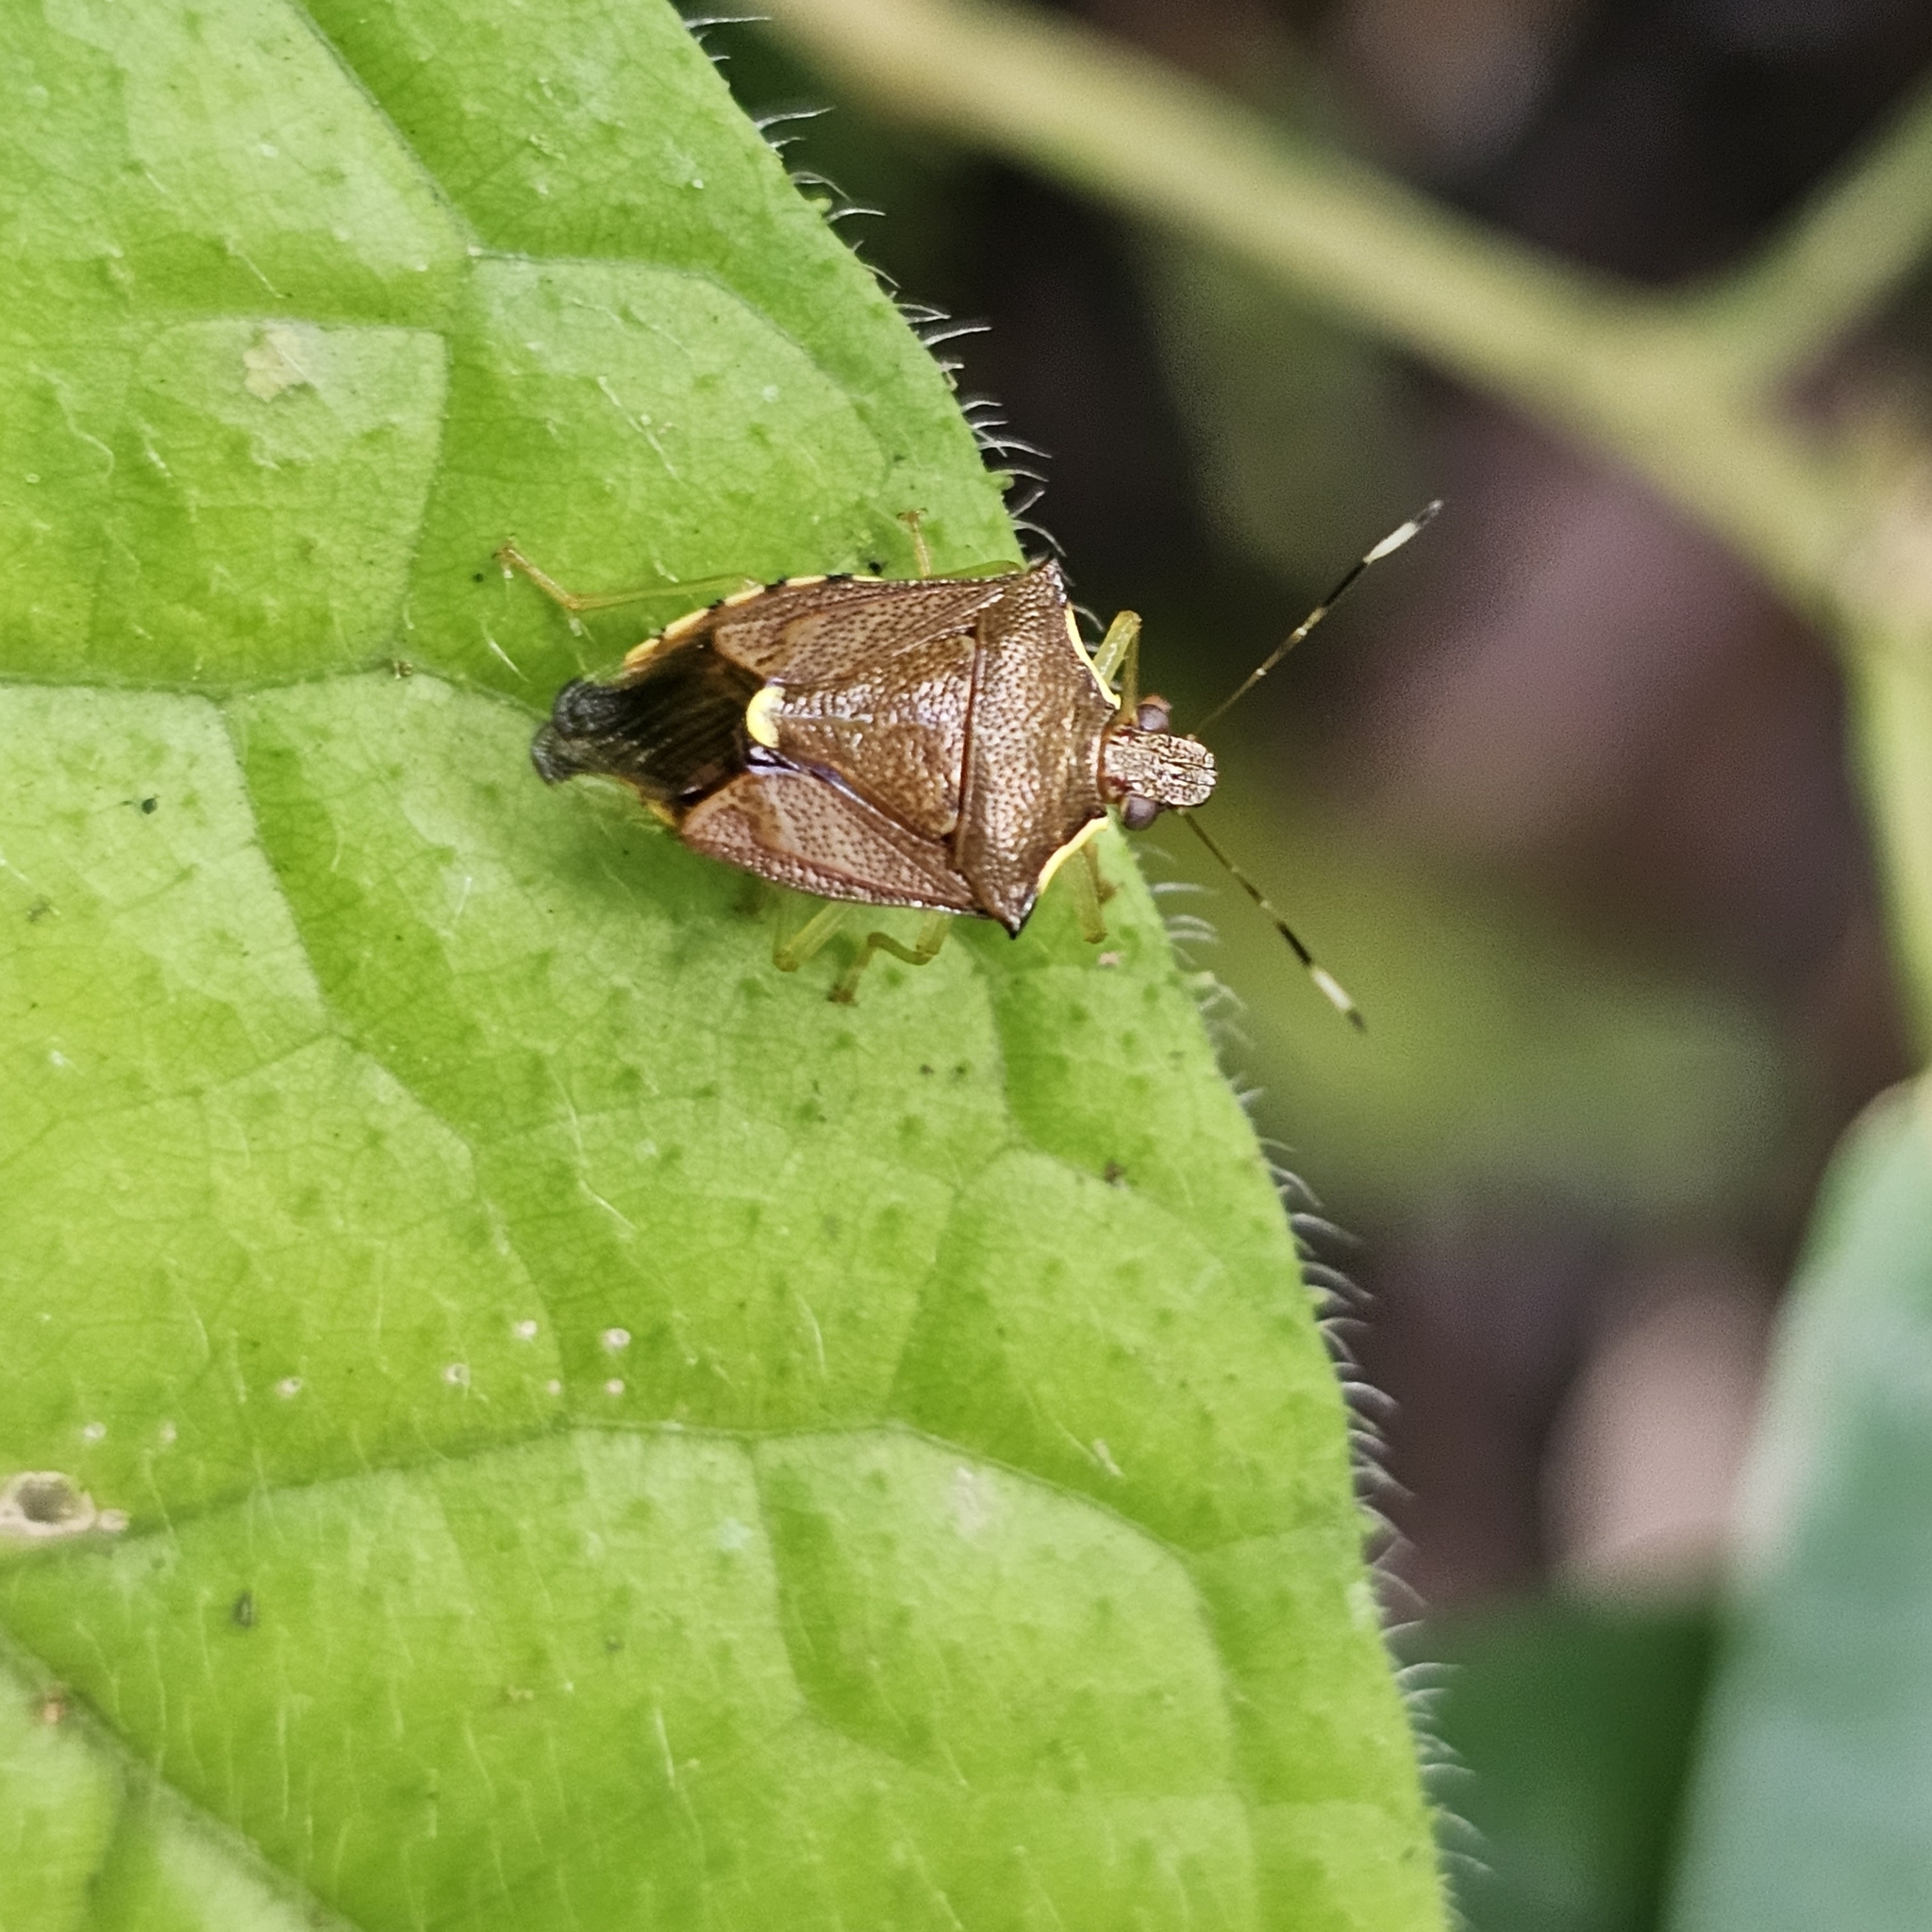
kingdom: Animalia
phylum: Arthropoda
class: Insecta
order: Hemiptera
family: Pentatomidae
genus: Podisus
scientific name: Podisus aenescens
